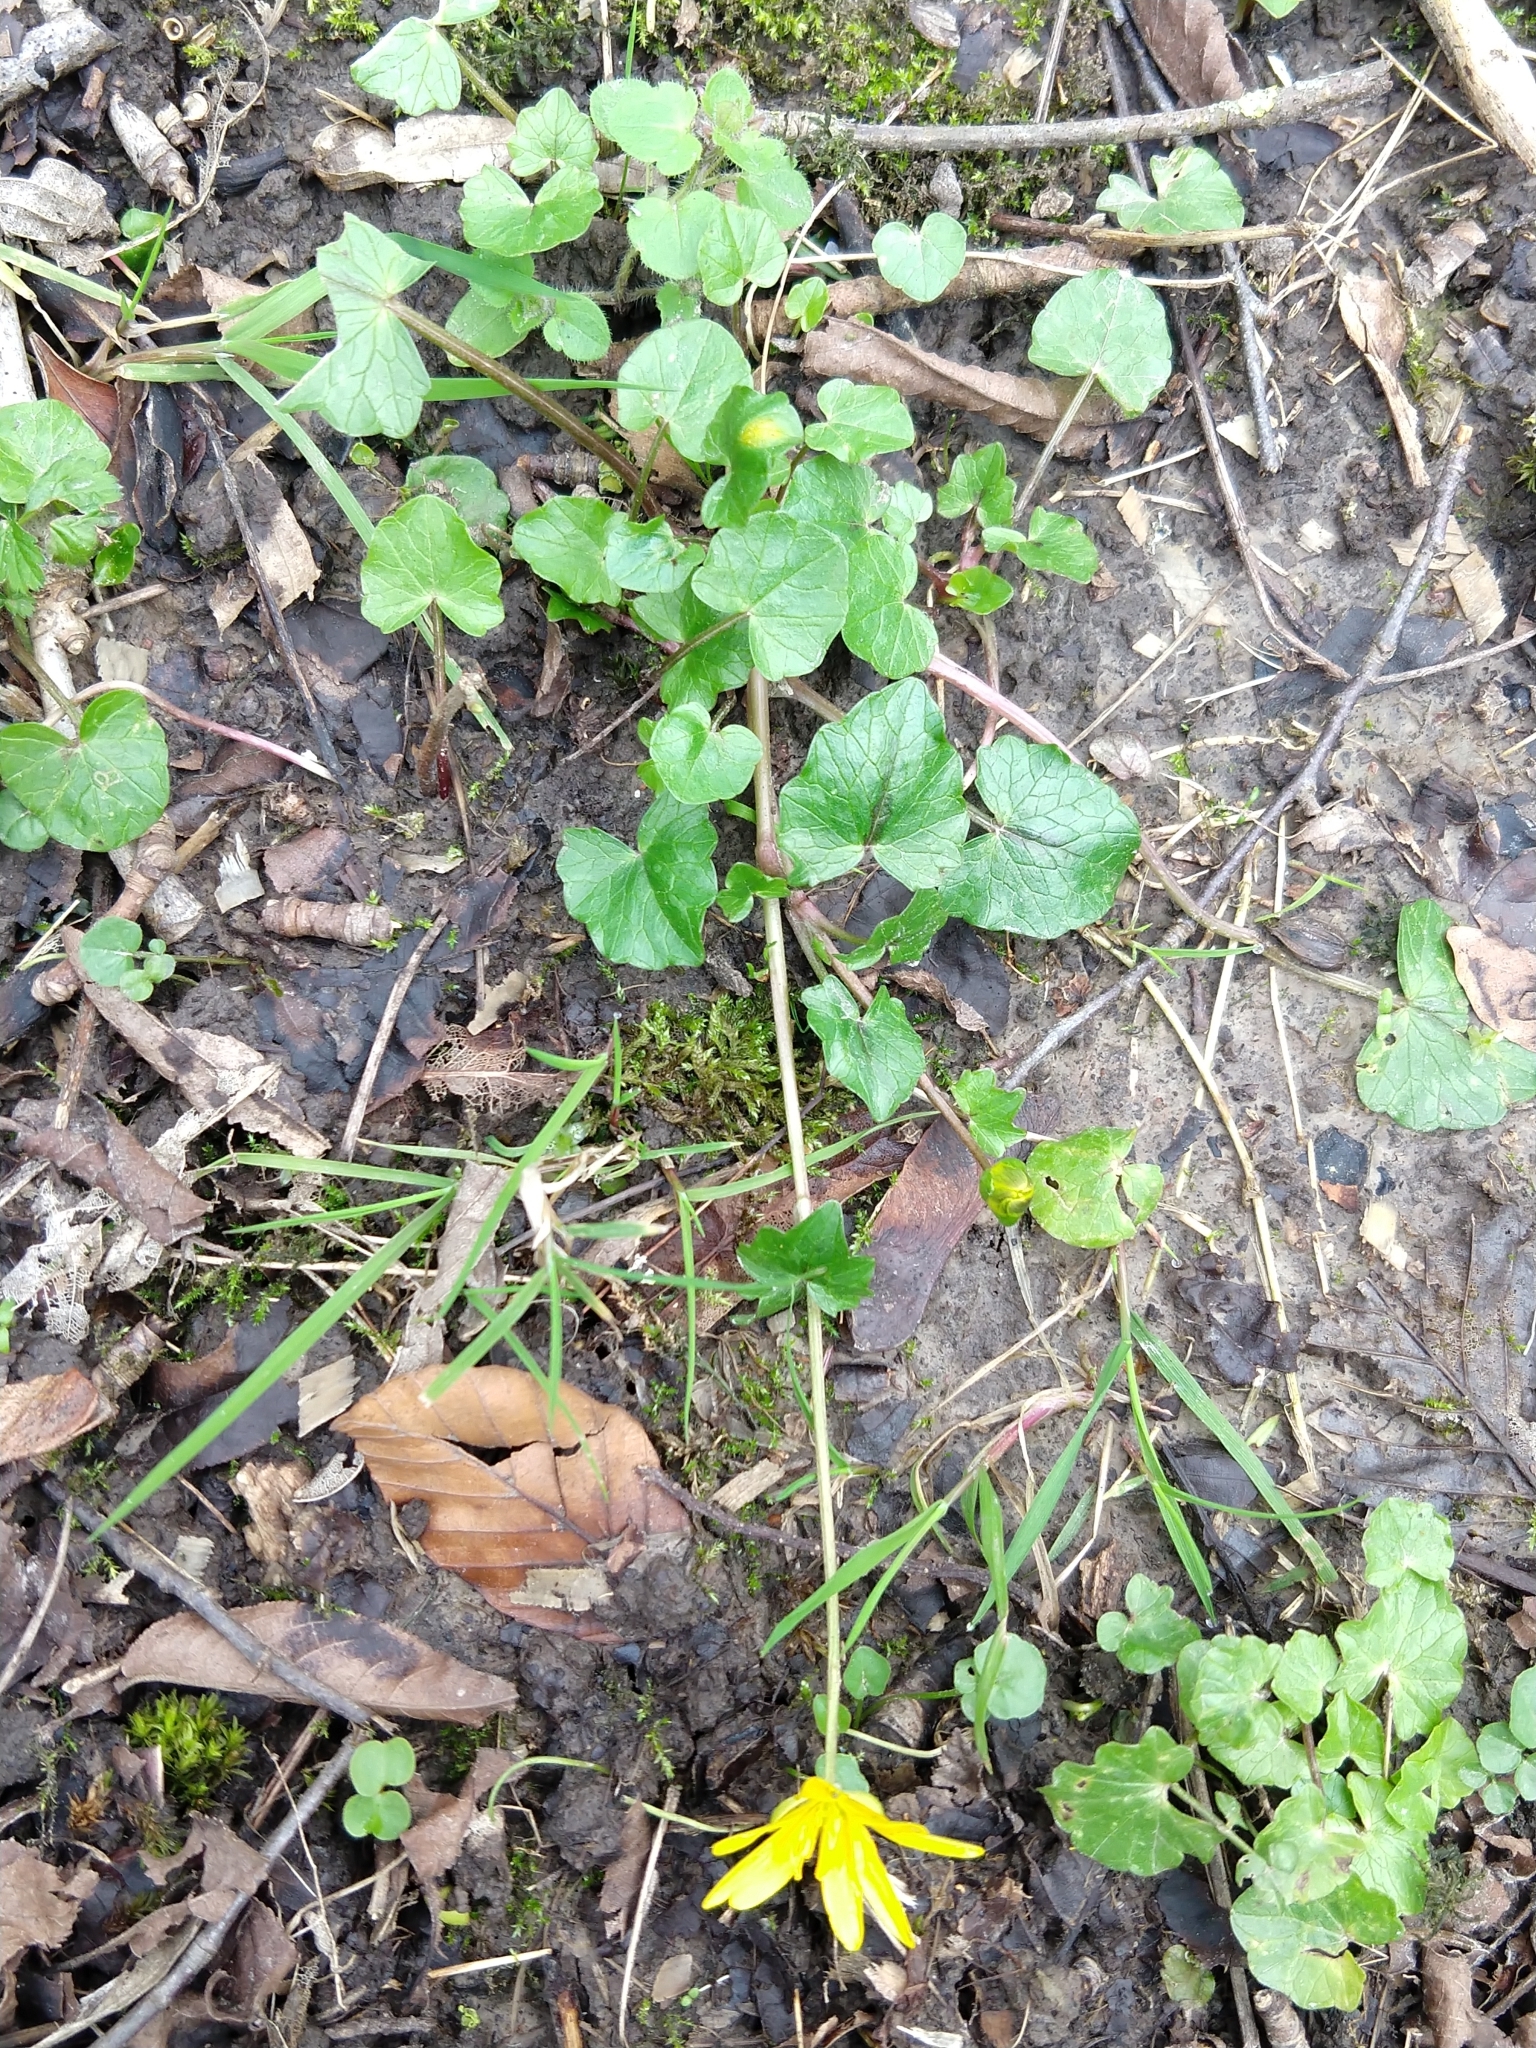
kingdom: Plantae
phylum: Tracheophyta
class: Magnoliopsida
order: Ranunculales
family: Ranunculaceae
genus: Ficaria
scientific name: Ficaria verna
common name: Lesser celandine
